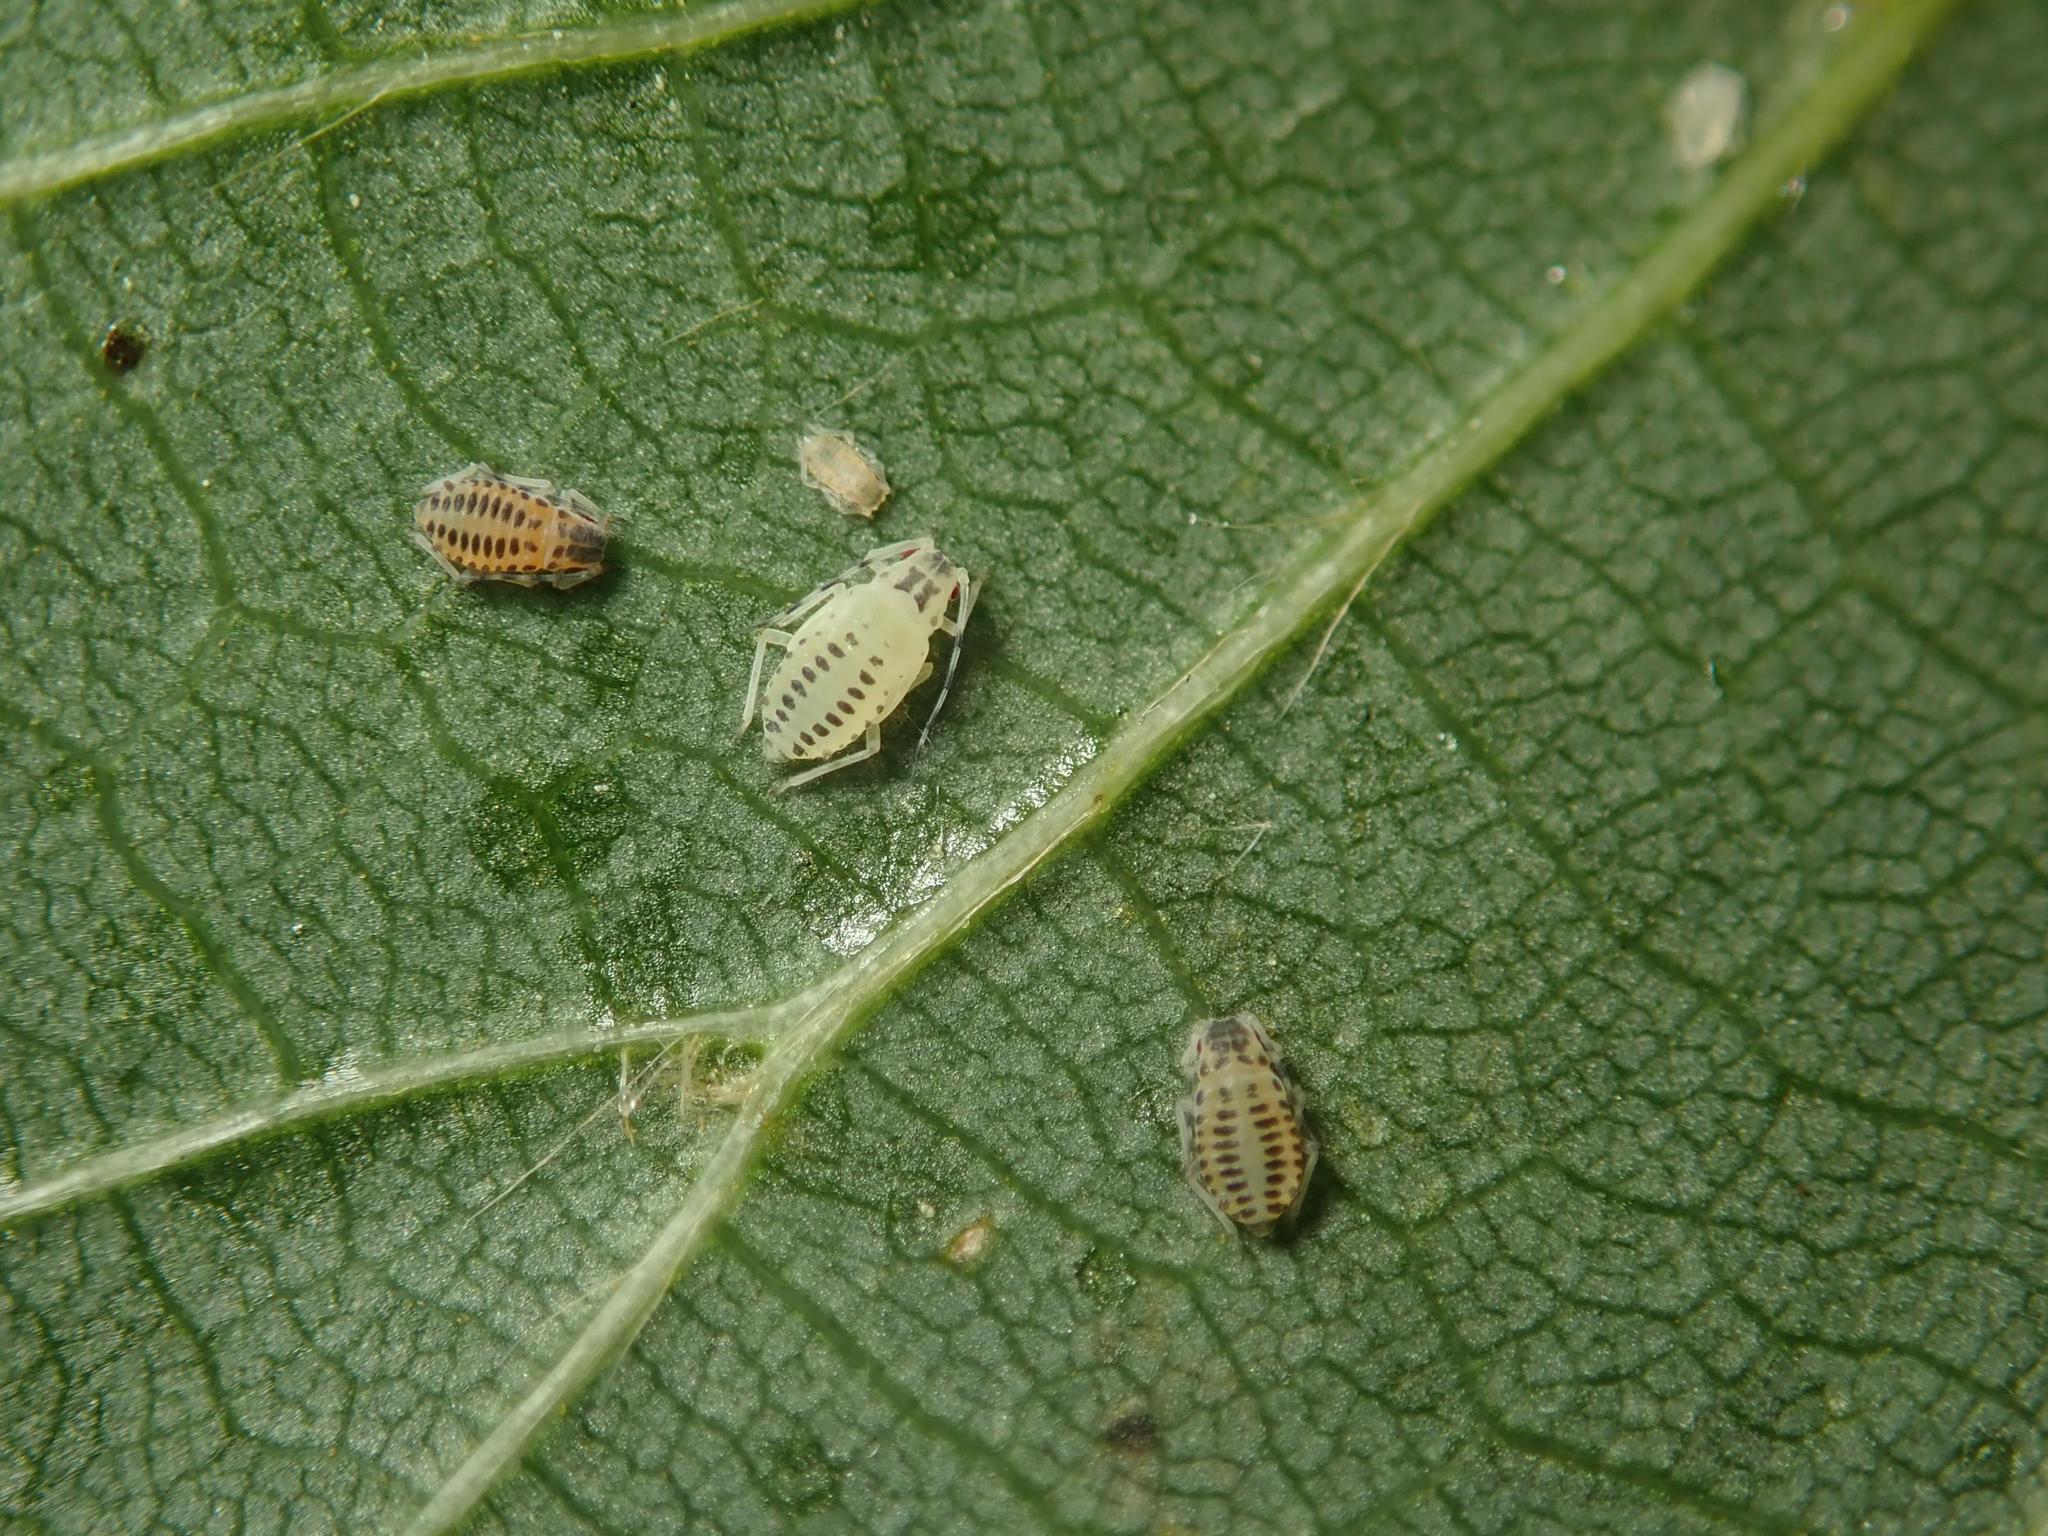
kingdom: Animalia
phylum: Arthropoda
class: Insecta
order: Hemiptera
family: Aphididae
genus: Eucallipterus
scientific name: Eucallipterus tiliae
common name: Aphid
